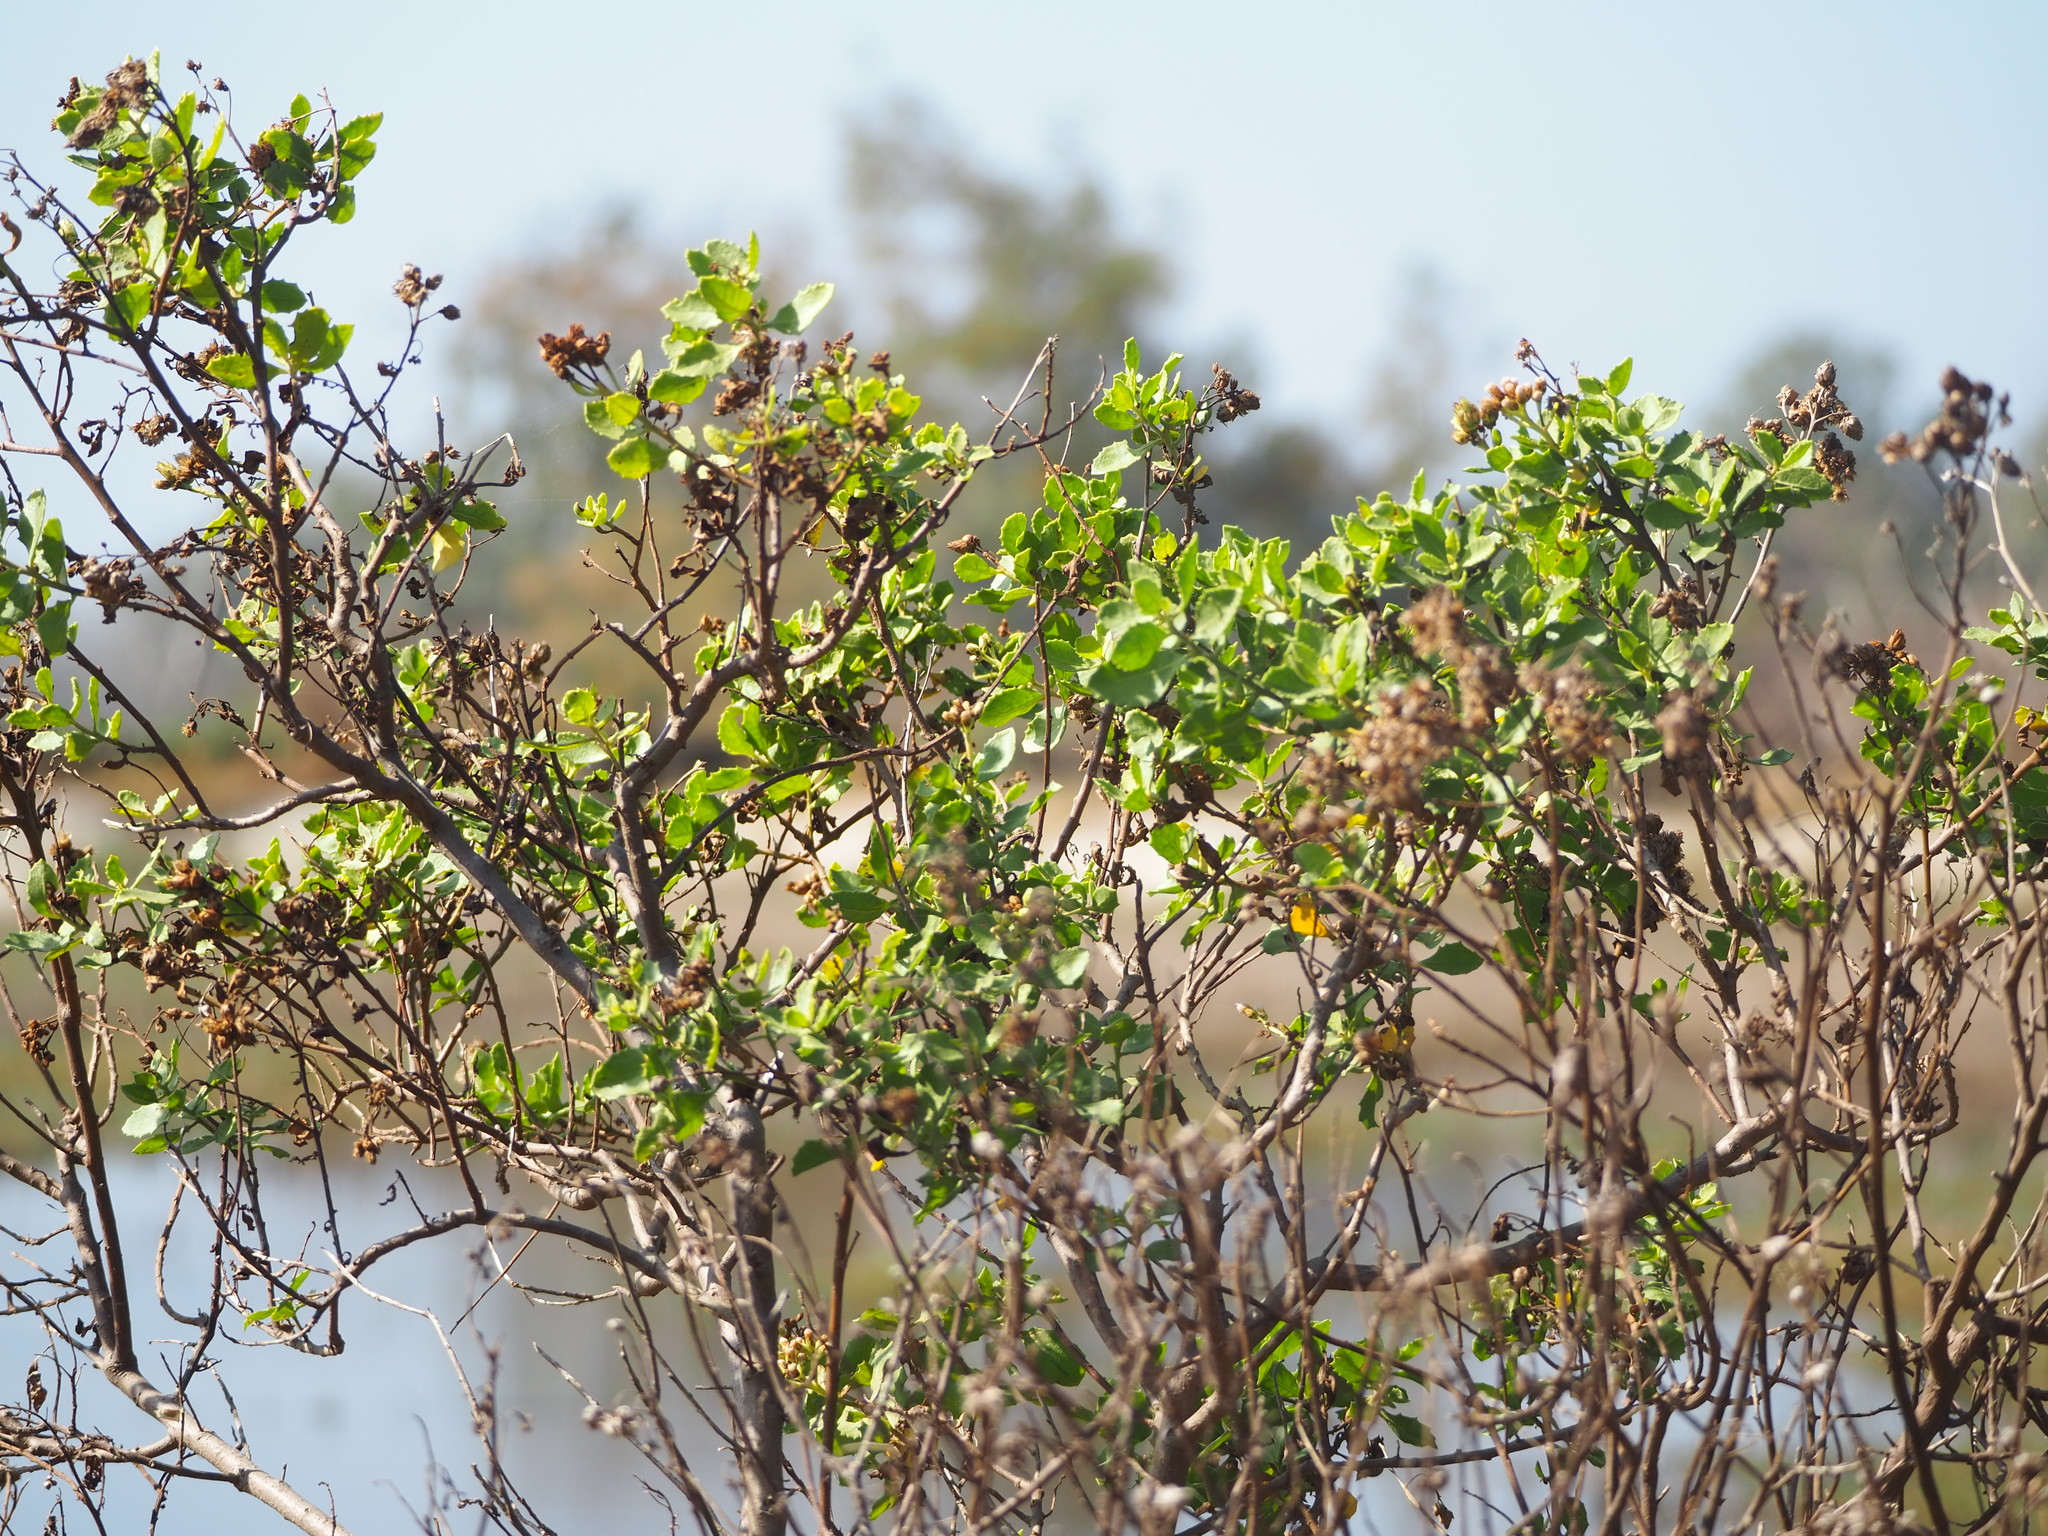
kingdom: Plantae
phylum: Tracheophyta
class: Magnoliopsida
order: Asterales
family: Asteraceae
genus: Pluchea
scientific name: Pluchea indica
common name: Indian fleabane
